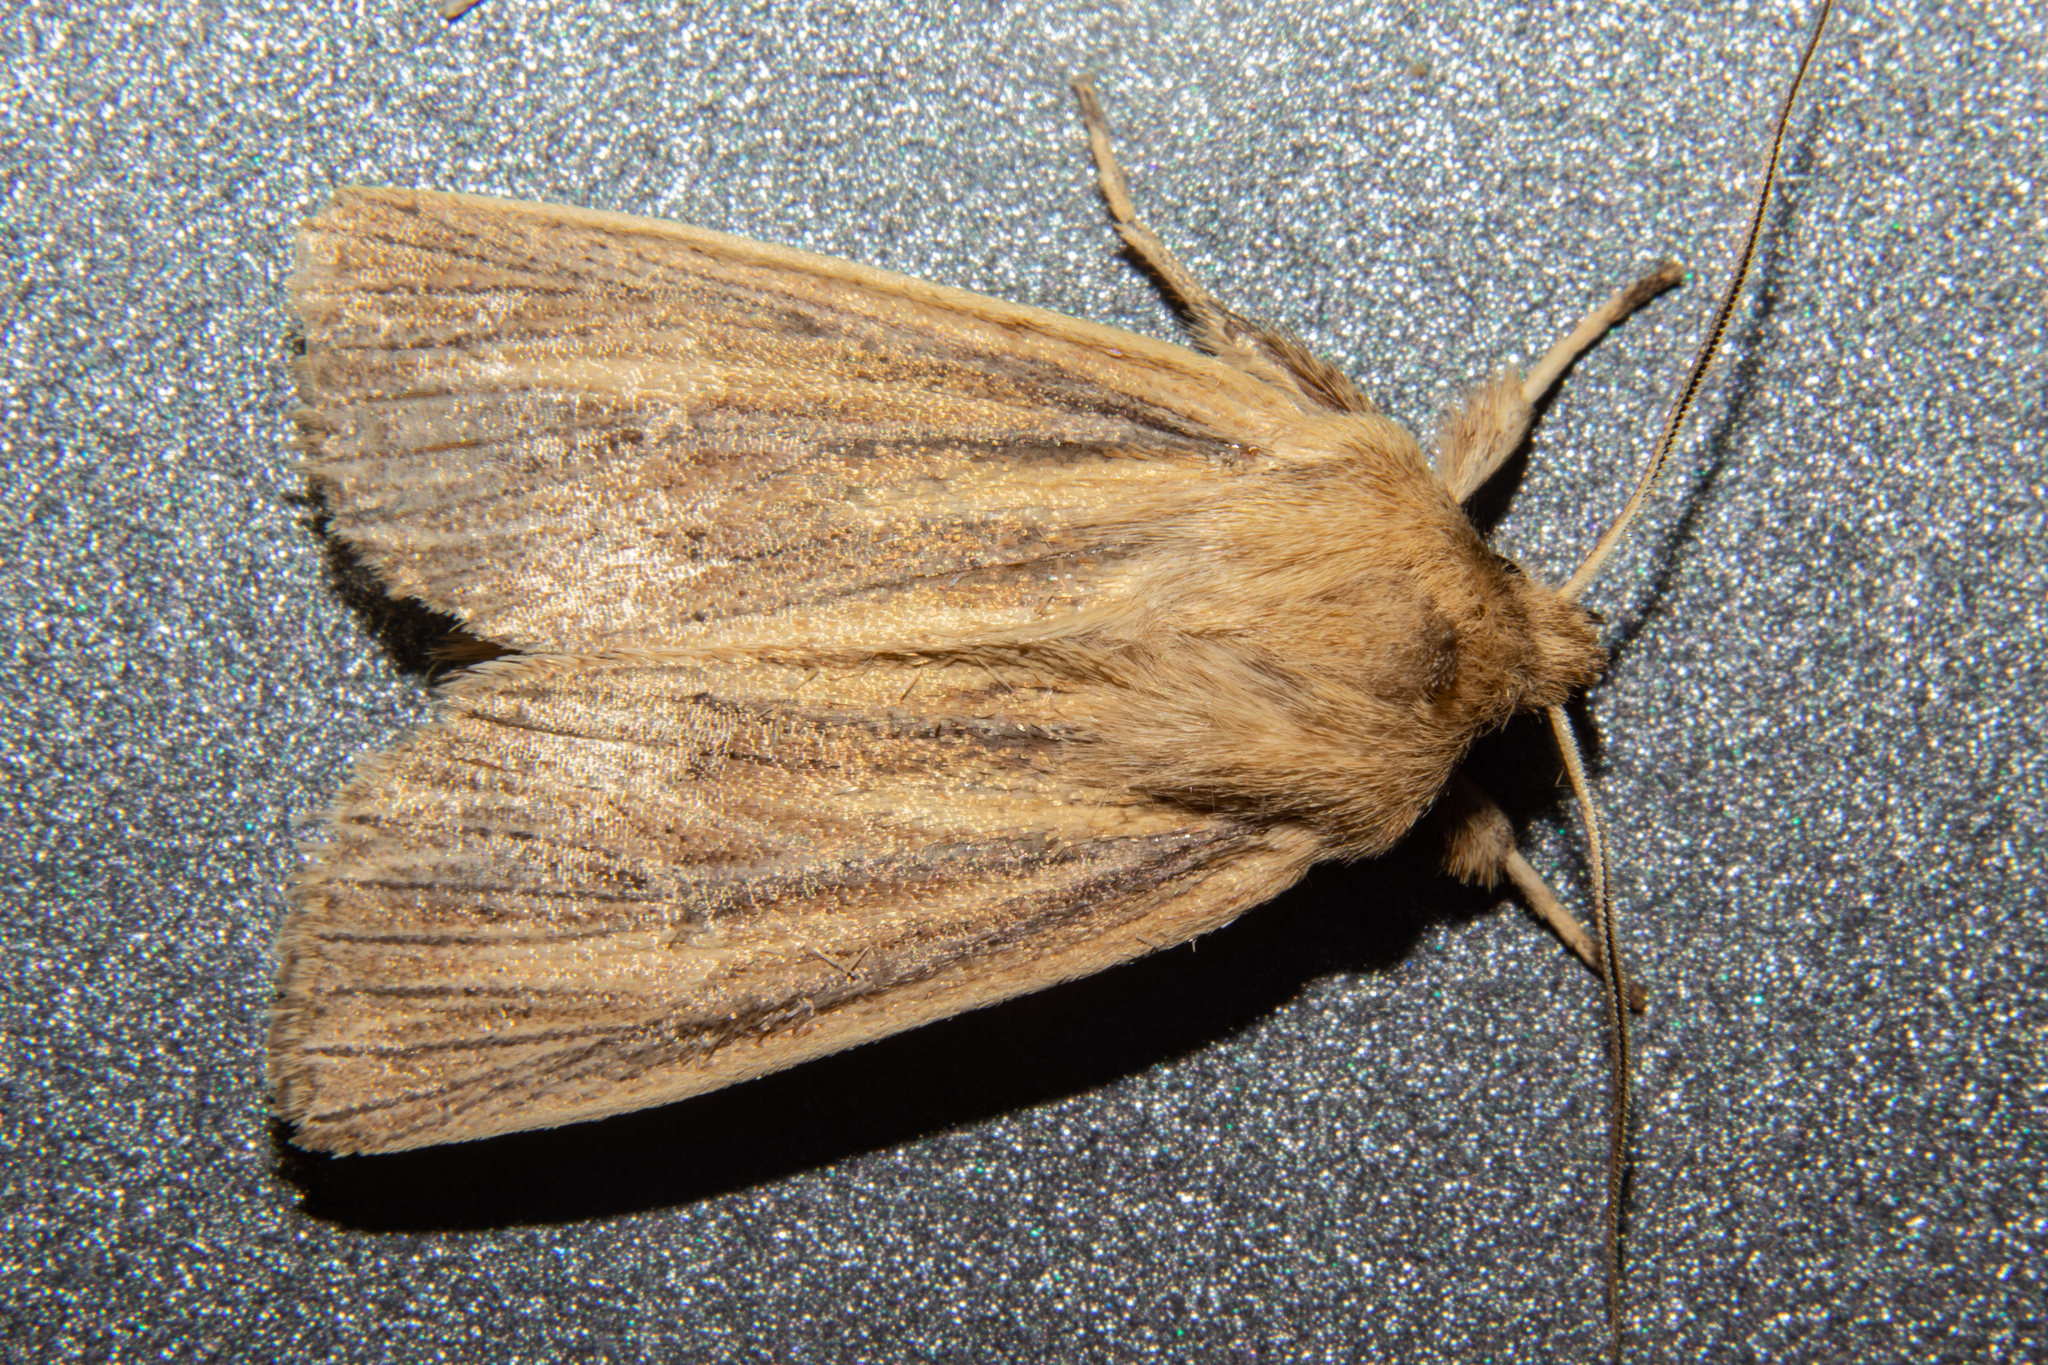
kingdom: Animalia
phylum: Arthropoda
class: Insecta
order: Lepidoptera
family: Noctuidae
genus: Ichneutica
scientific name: Ichneutica arotis
